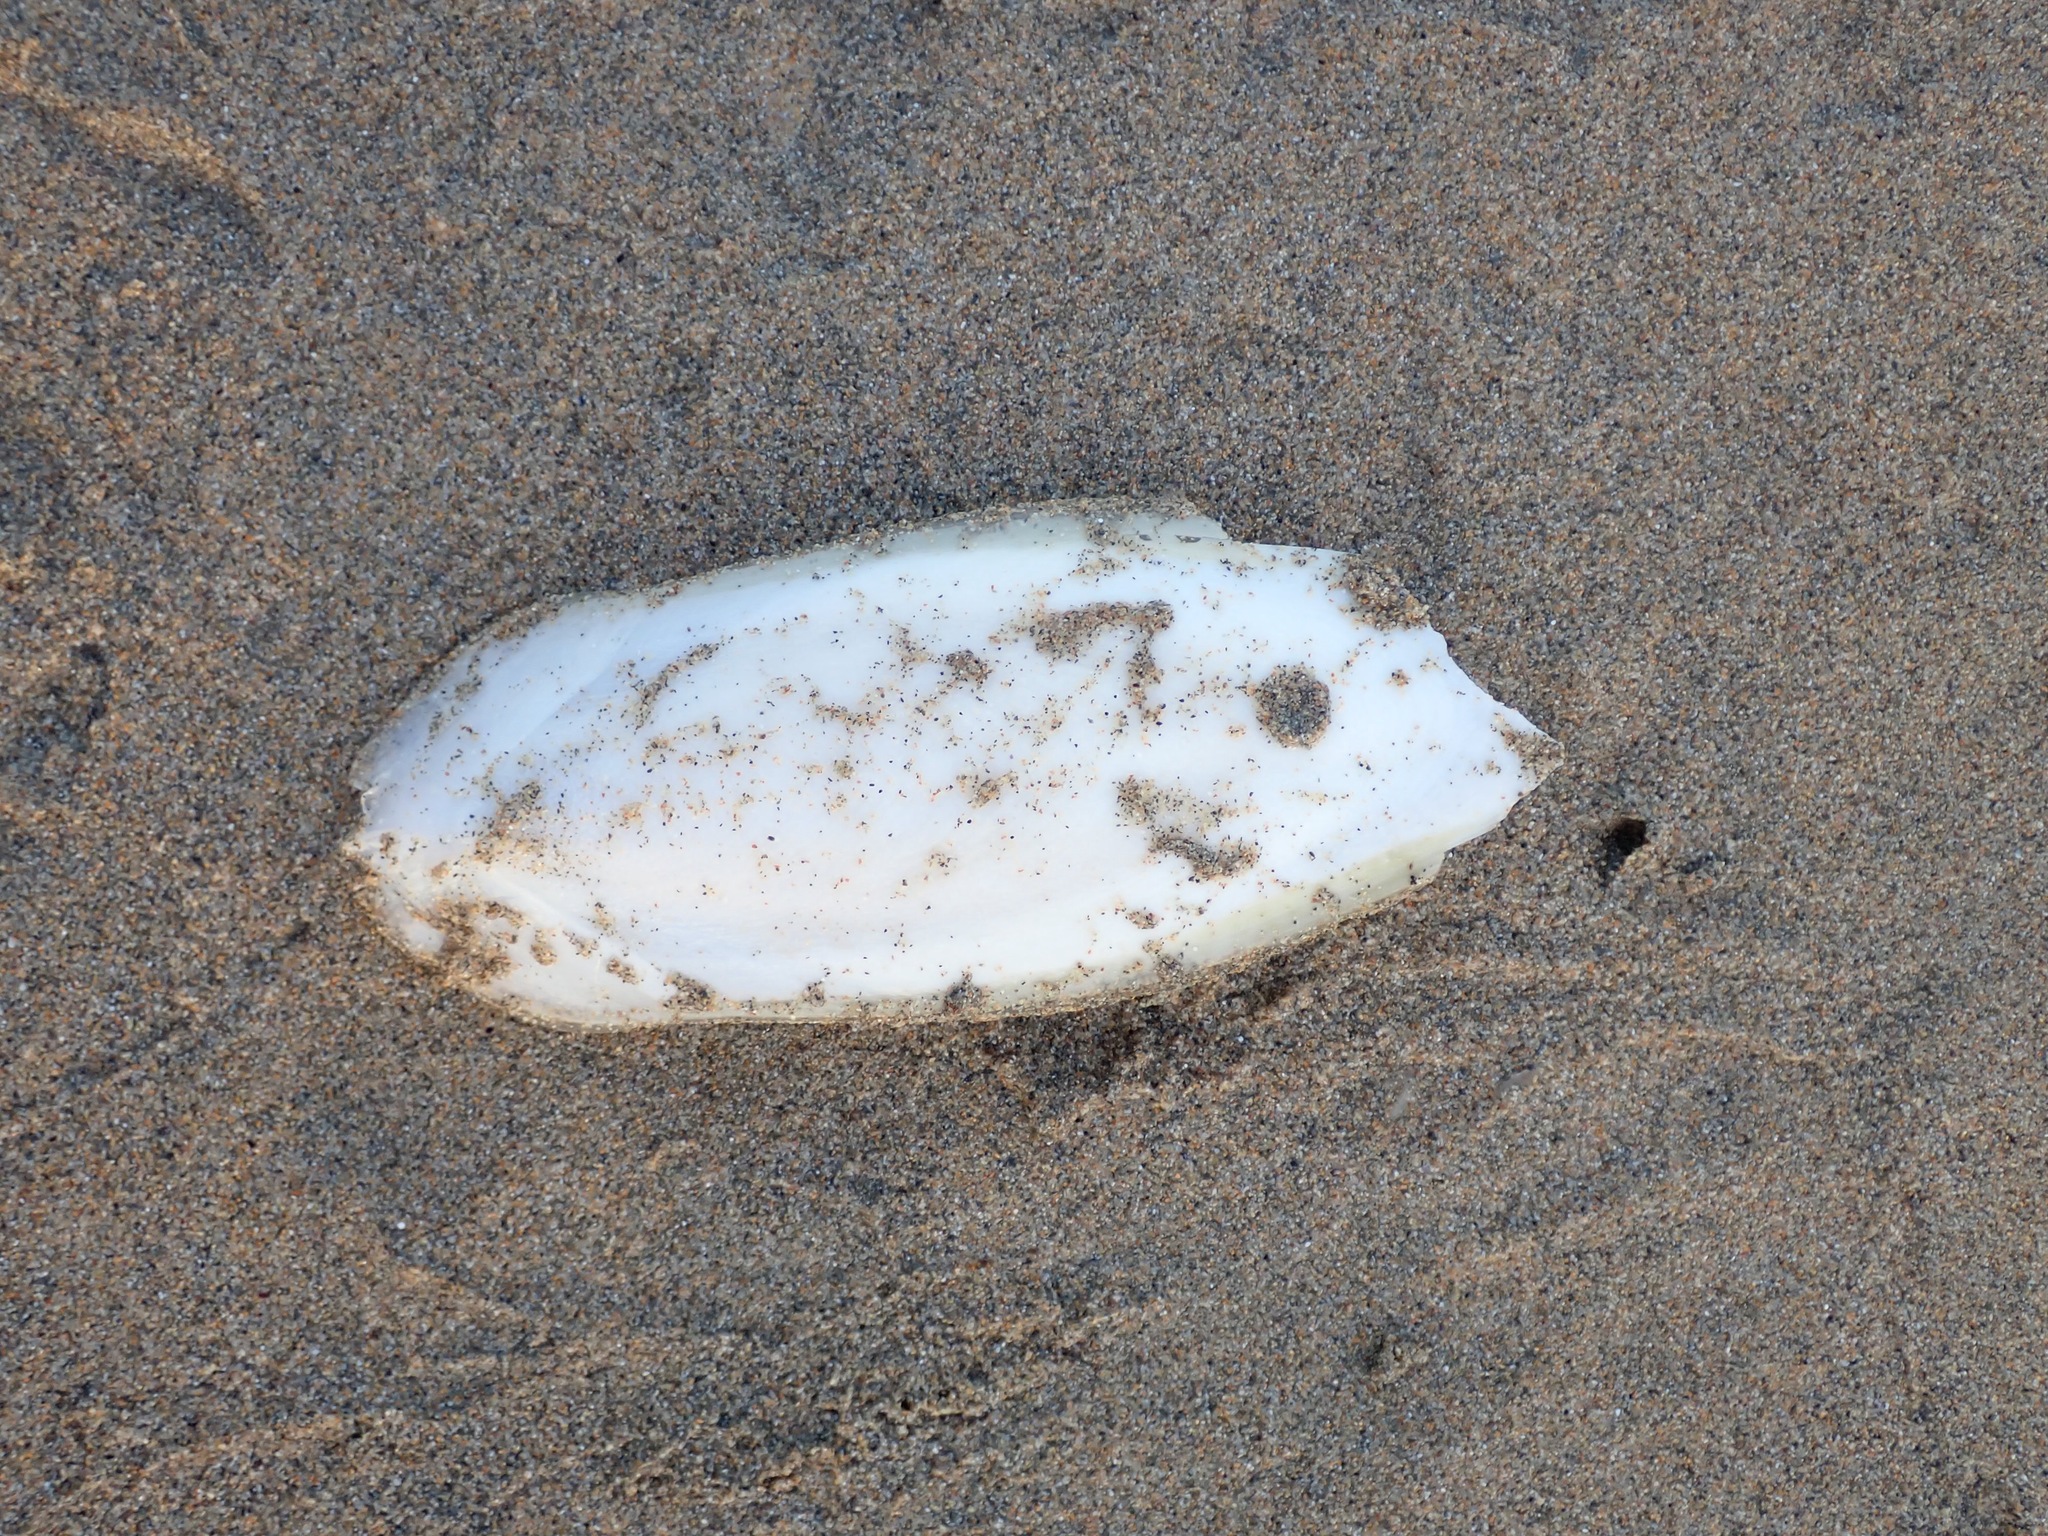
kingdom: Animalia
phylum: Mollusca
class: Cephalopoda
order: Sepiida
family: Sepiidae
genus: Sepia
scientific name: Sepia officinalis
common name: Common cuttlefish
